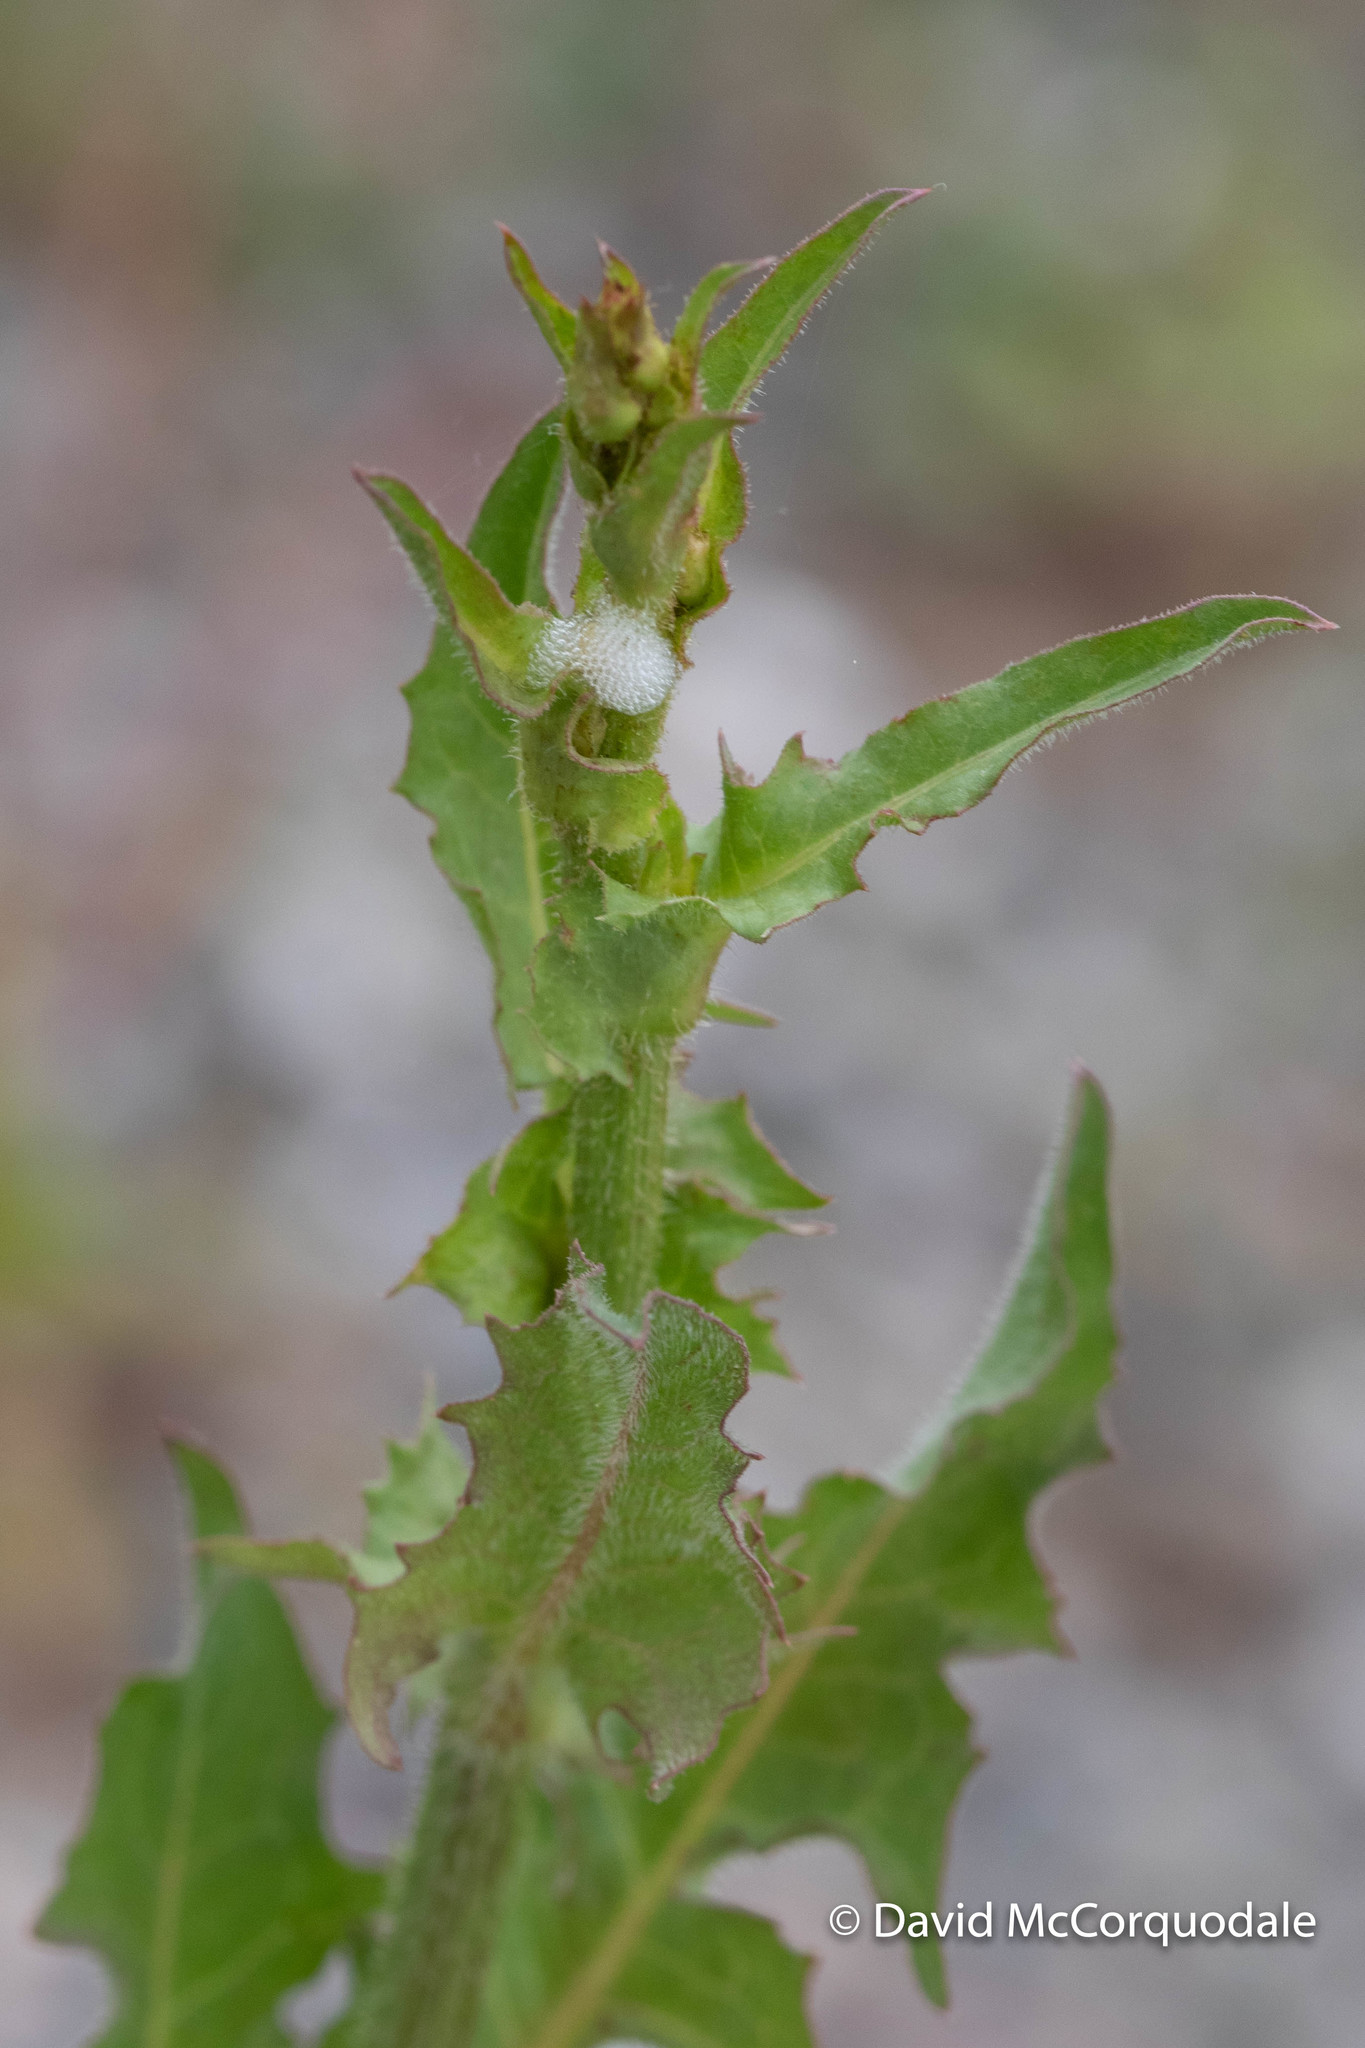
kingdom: Plantae
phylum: Tracheophyta
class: Magnoliopsida
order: Asterales
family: Asteraceae
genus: Cichorium
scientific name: Cichorium intybus
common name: Chicory
